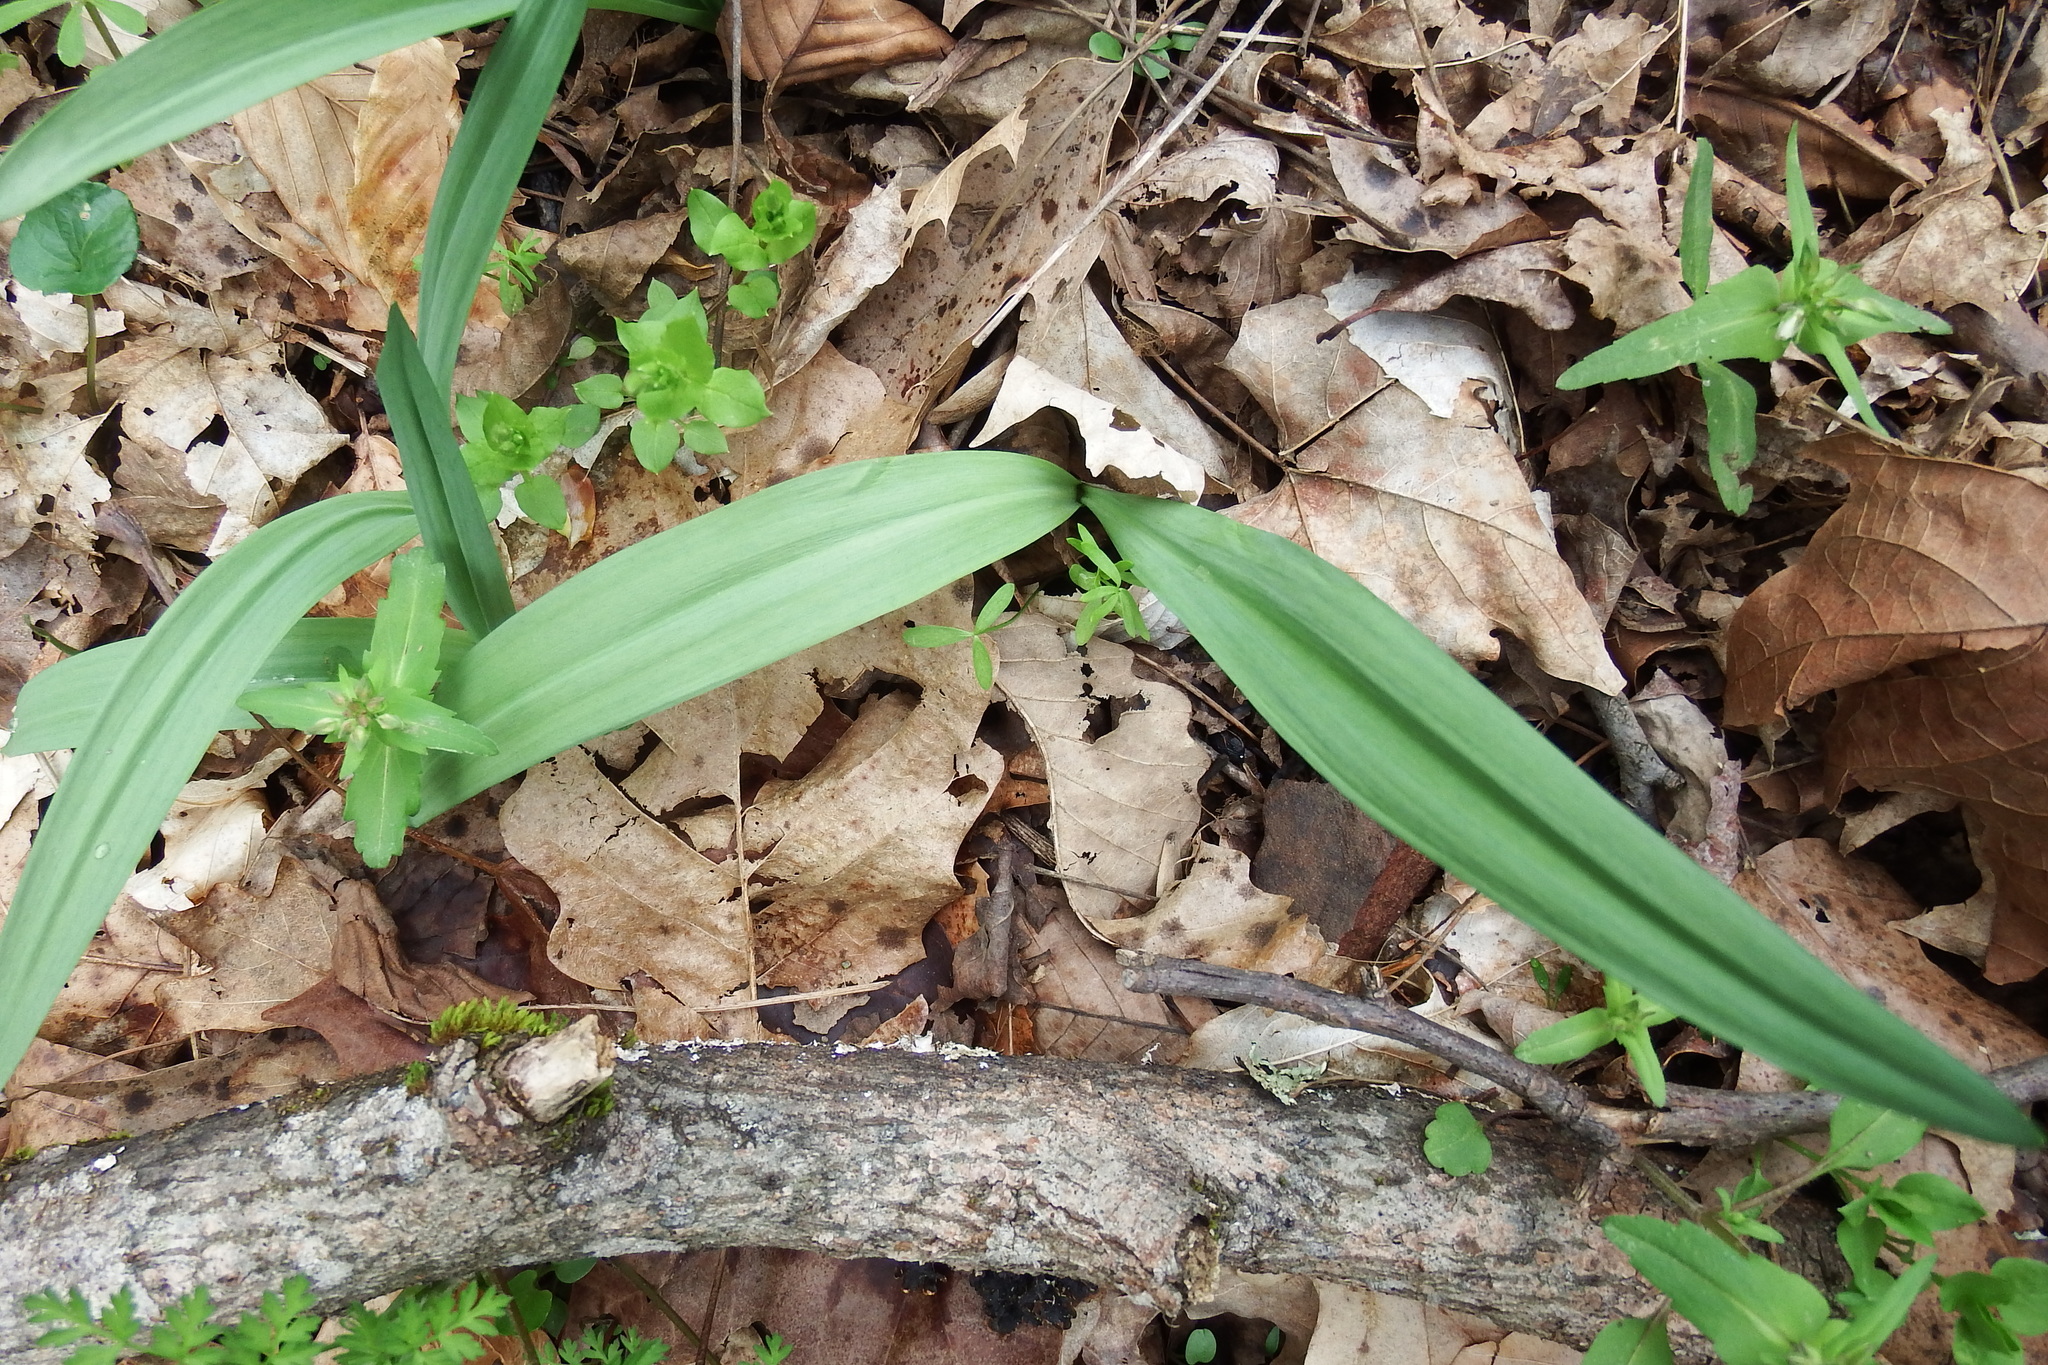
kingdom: Plantae
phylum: Tracheophyta
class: Liliopsida
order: Asparagales
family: Amaryllidaceae
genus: Allium
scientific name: Allium tricoccum
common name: Ramp
